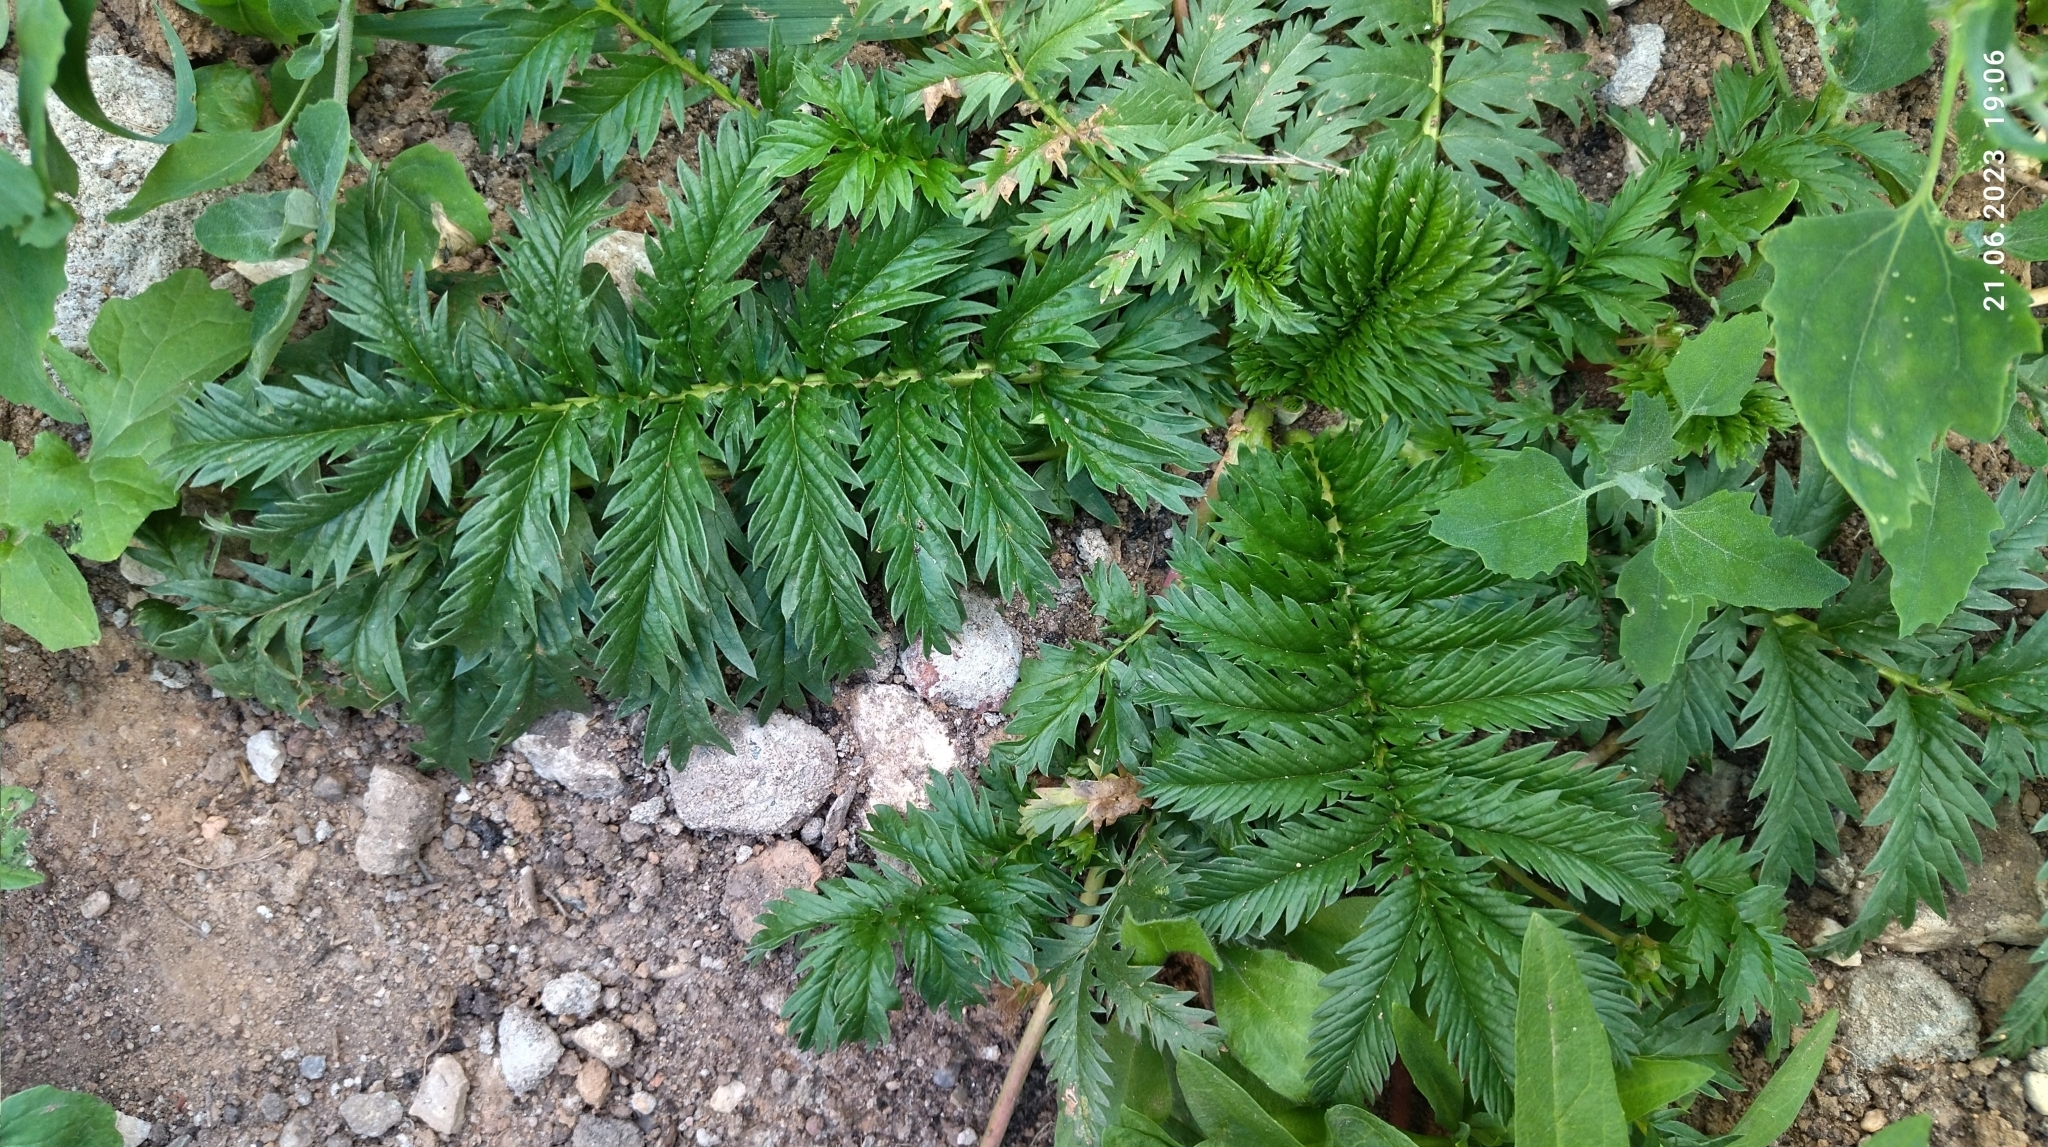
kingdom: Plantae
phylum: Tracheophyta
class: Magnoliopsida
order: Rosales
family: Rosaceae
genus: Argentina
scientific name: Argentina anserina
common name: Common silverweed
